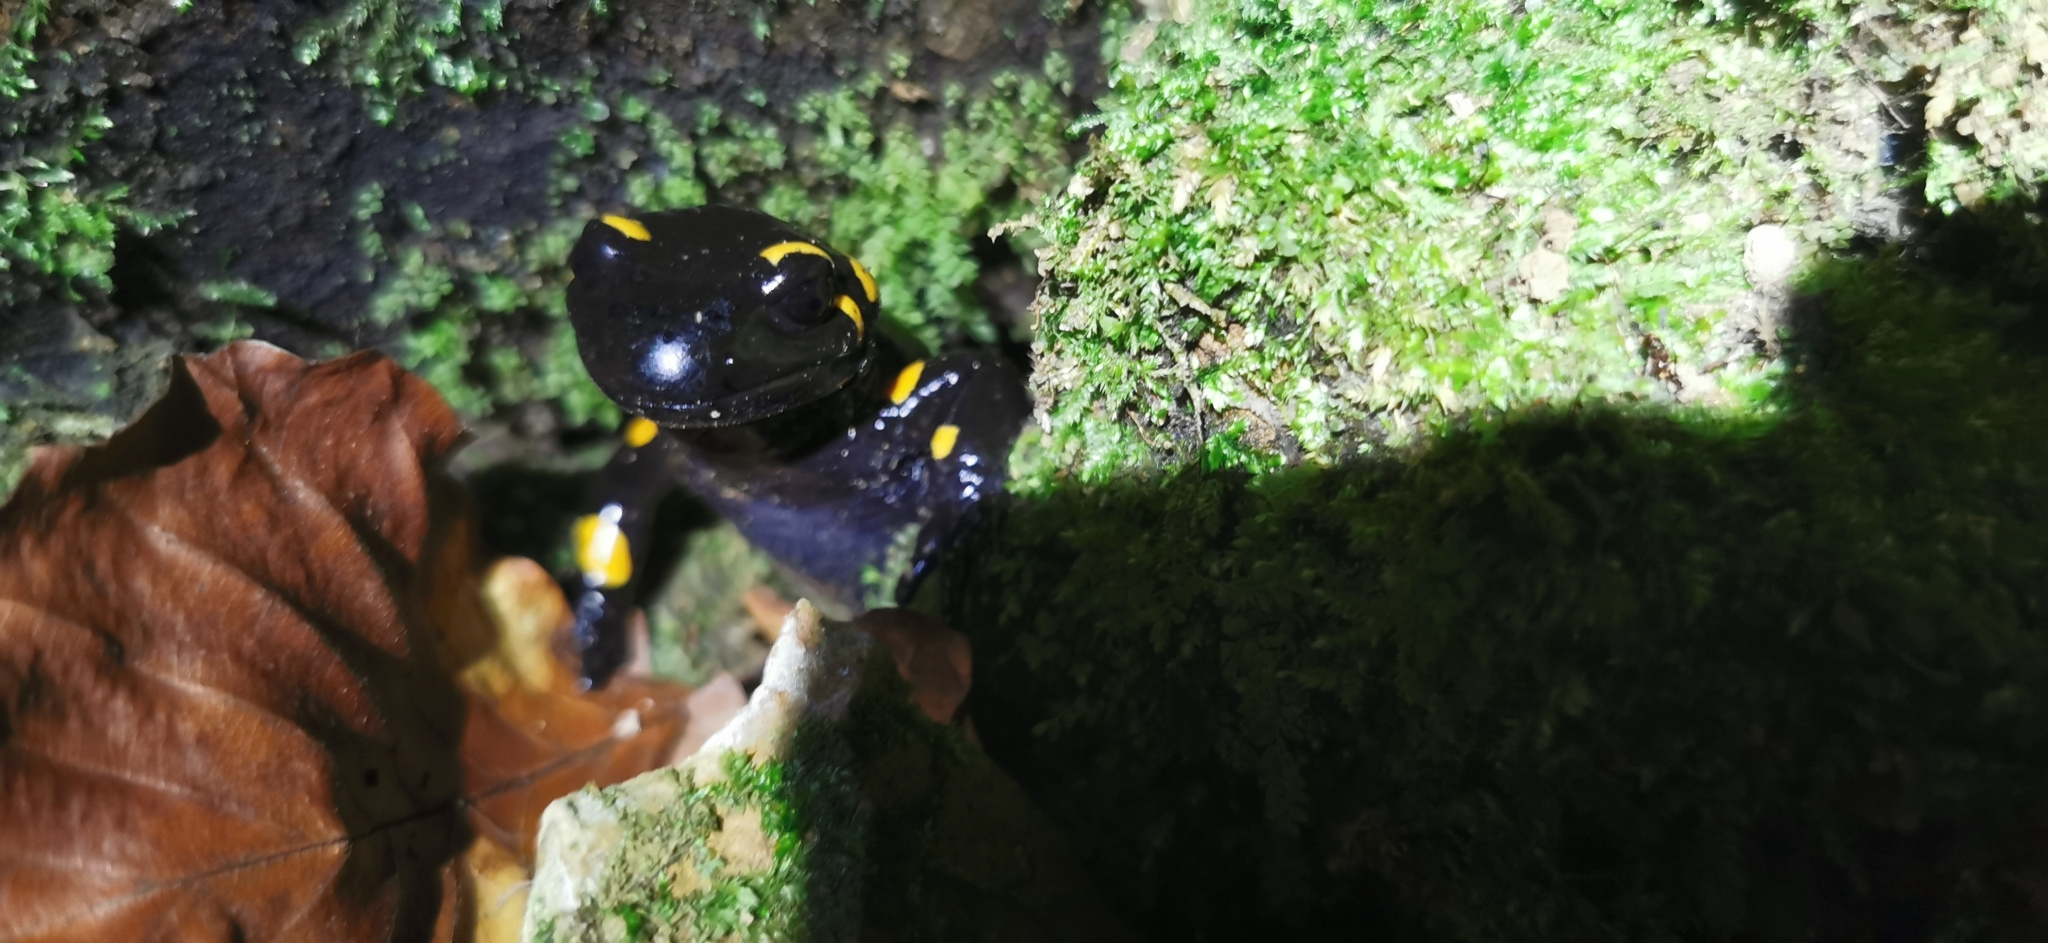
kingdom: Animalia
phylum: Chordata
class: Amphibia
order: Caudata
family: Salamandridae
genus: Salamandra
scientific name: Salamandra salamandra
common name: Fire salamander
